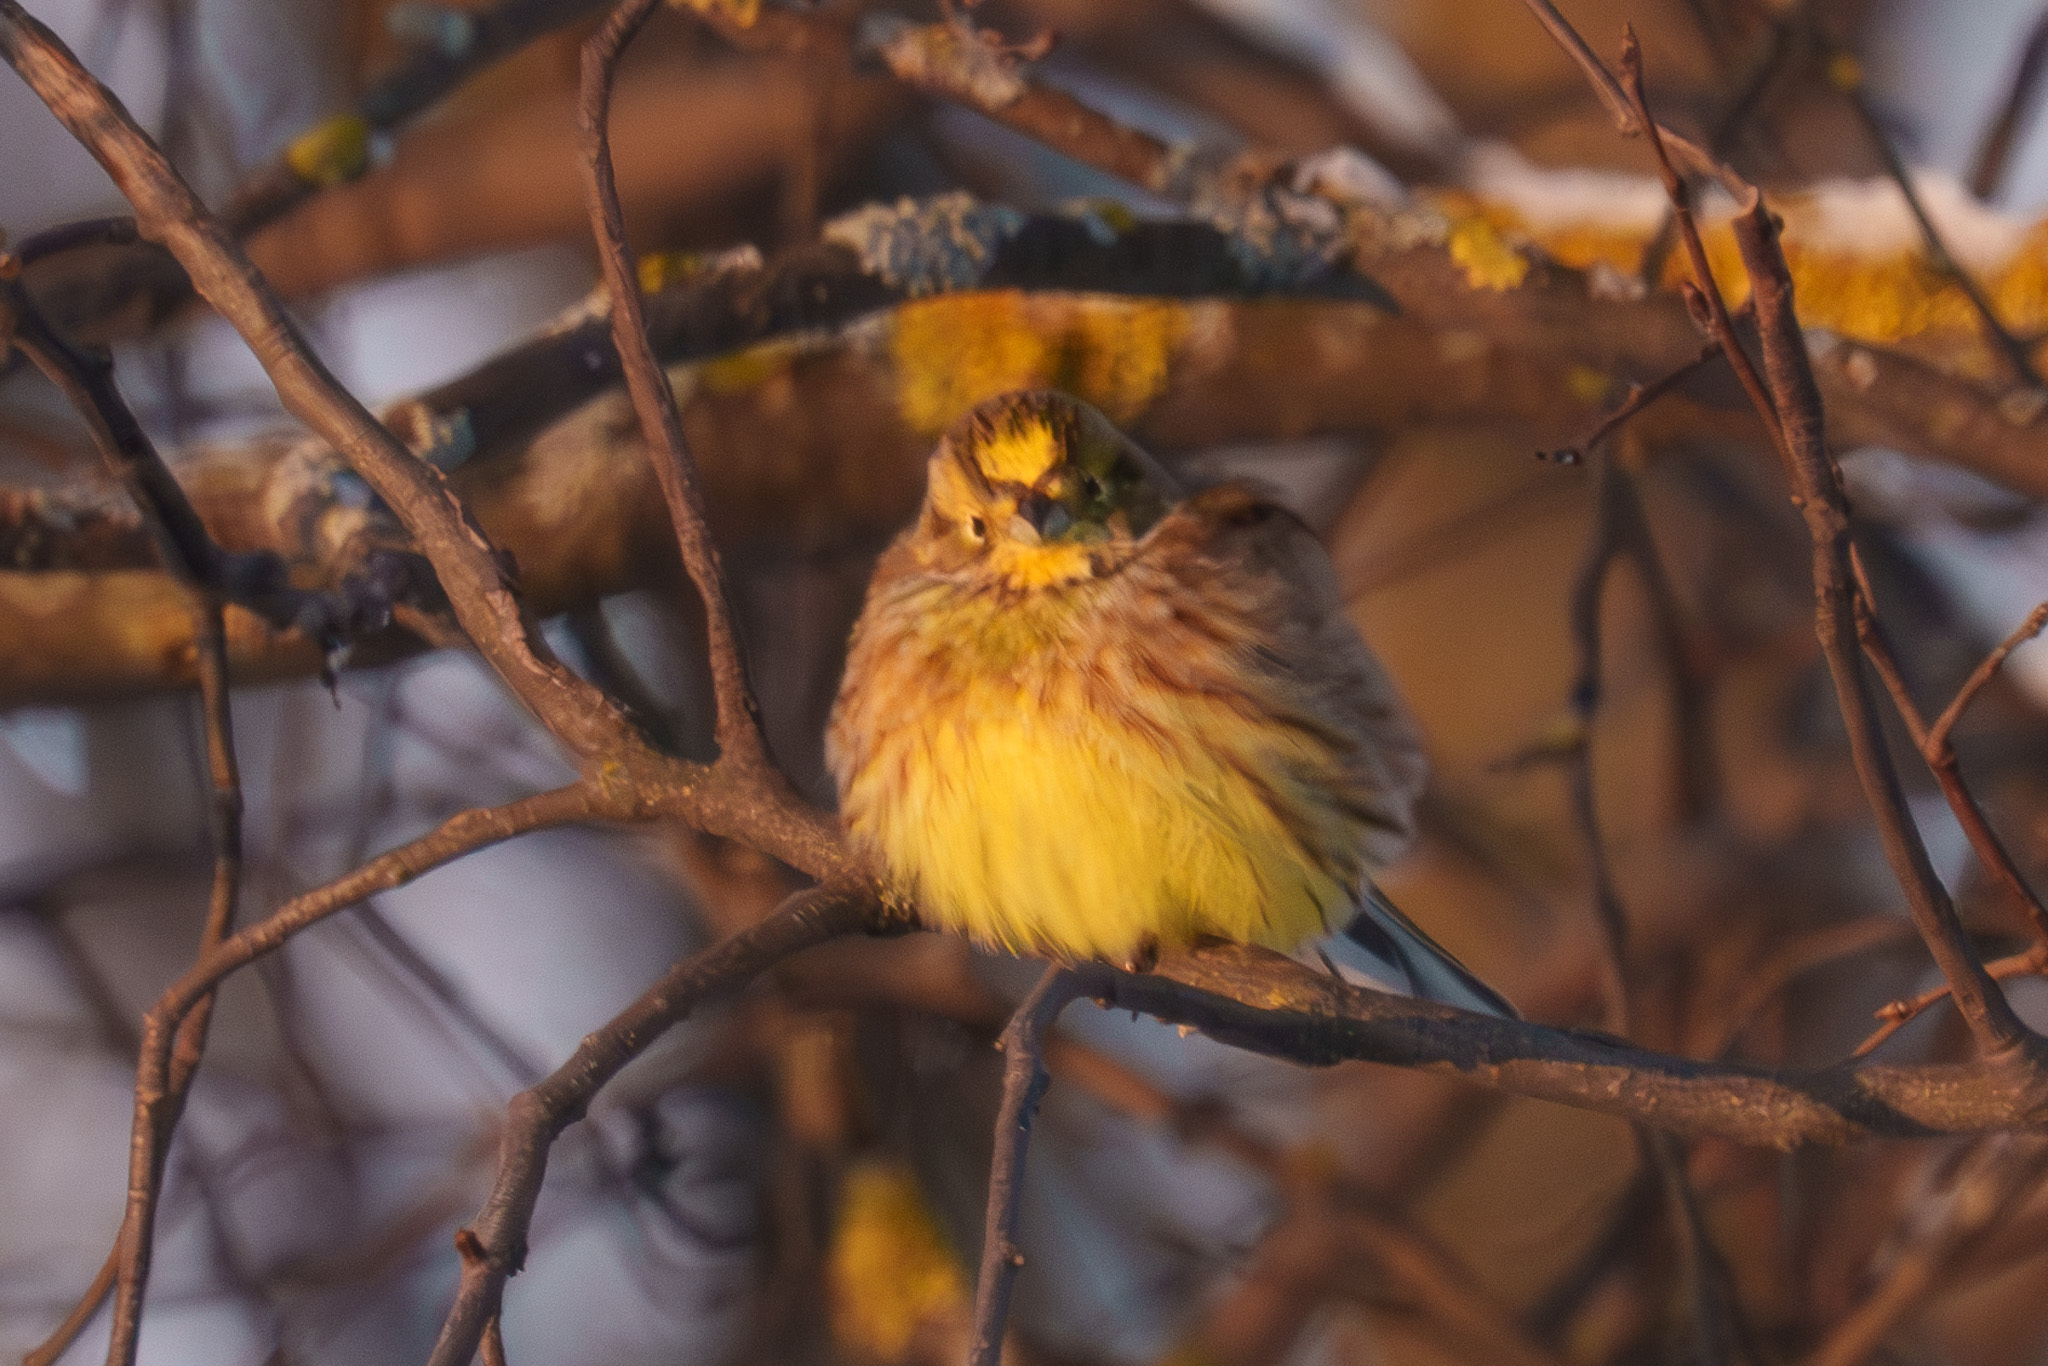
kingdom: Animalia
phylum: Chordata
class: Aves
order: Passeriformes
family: Emberizidae
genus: Emberiza
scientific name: Emberiza citrinella
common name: Yellowhammer
